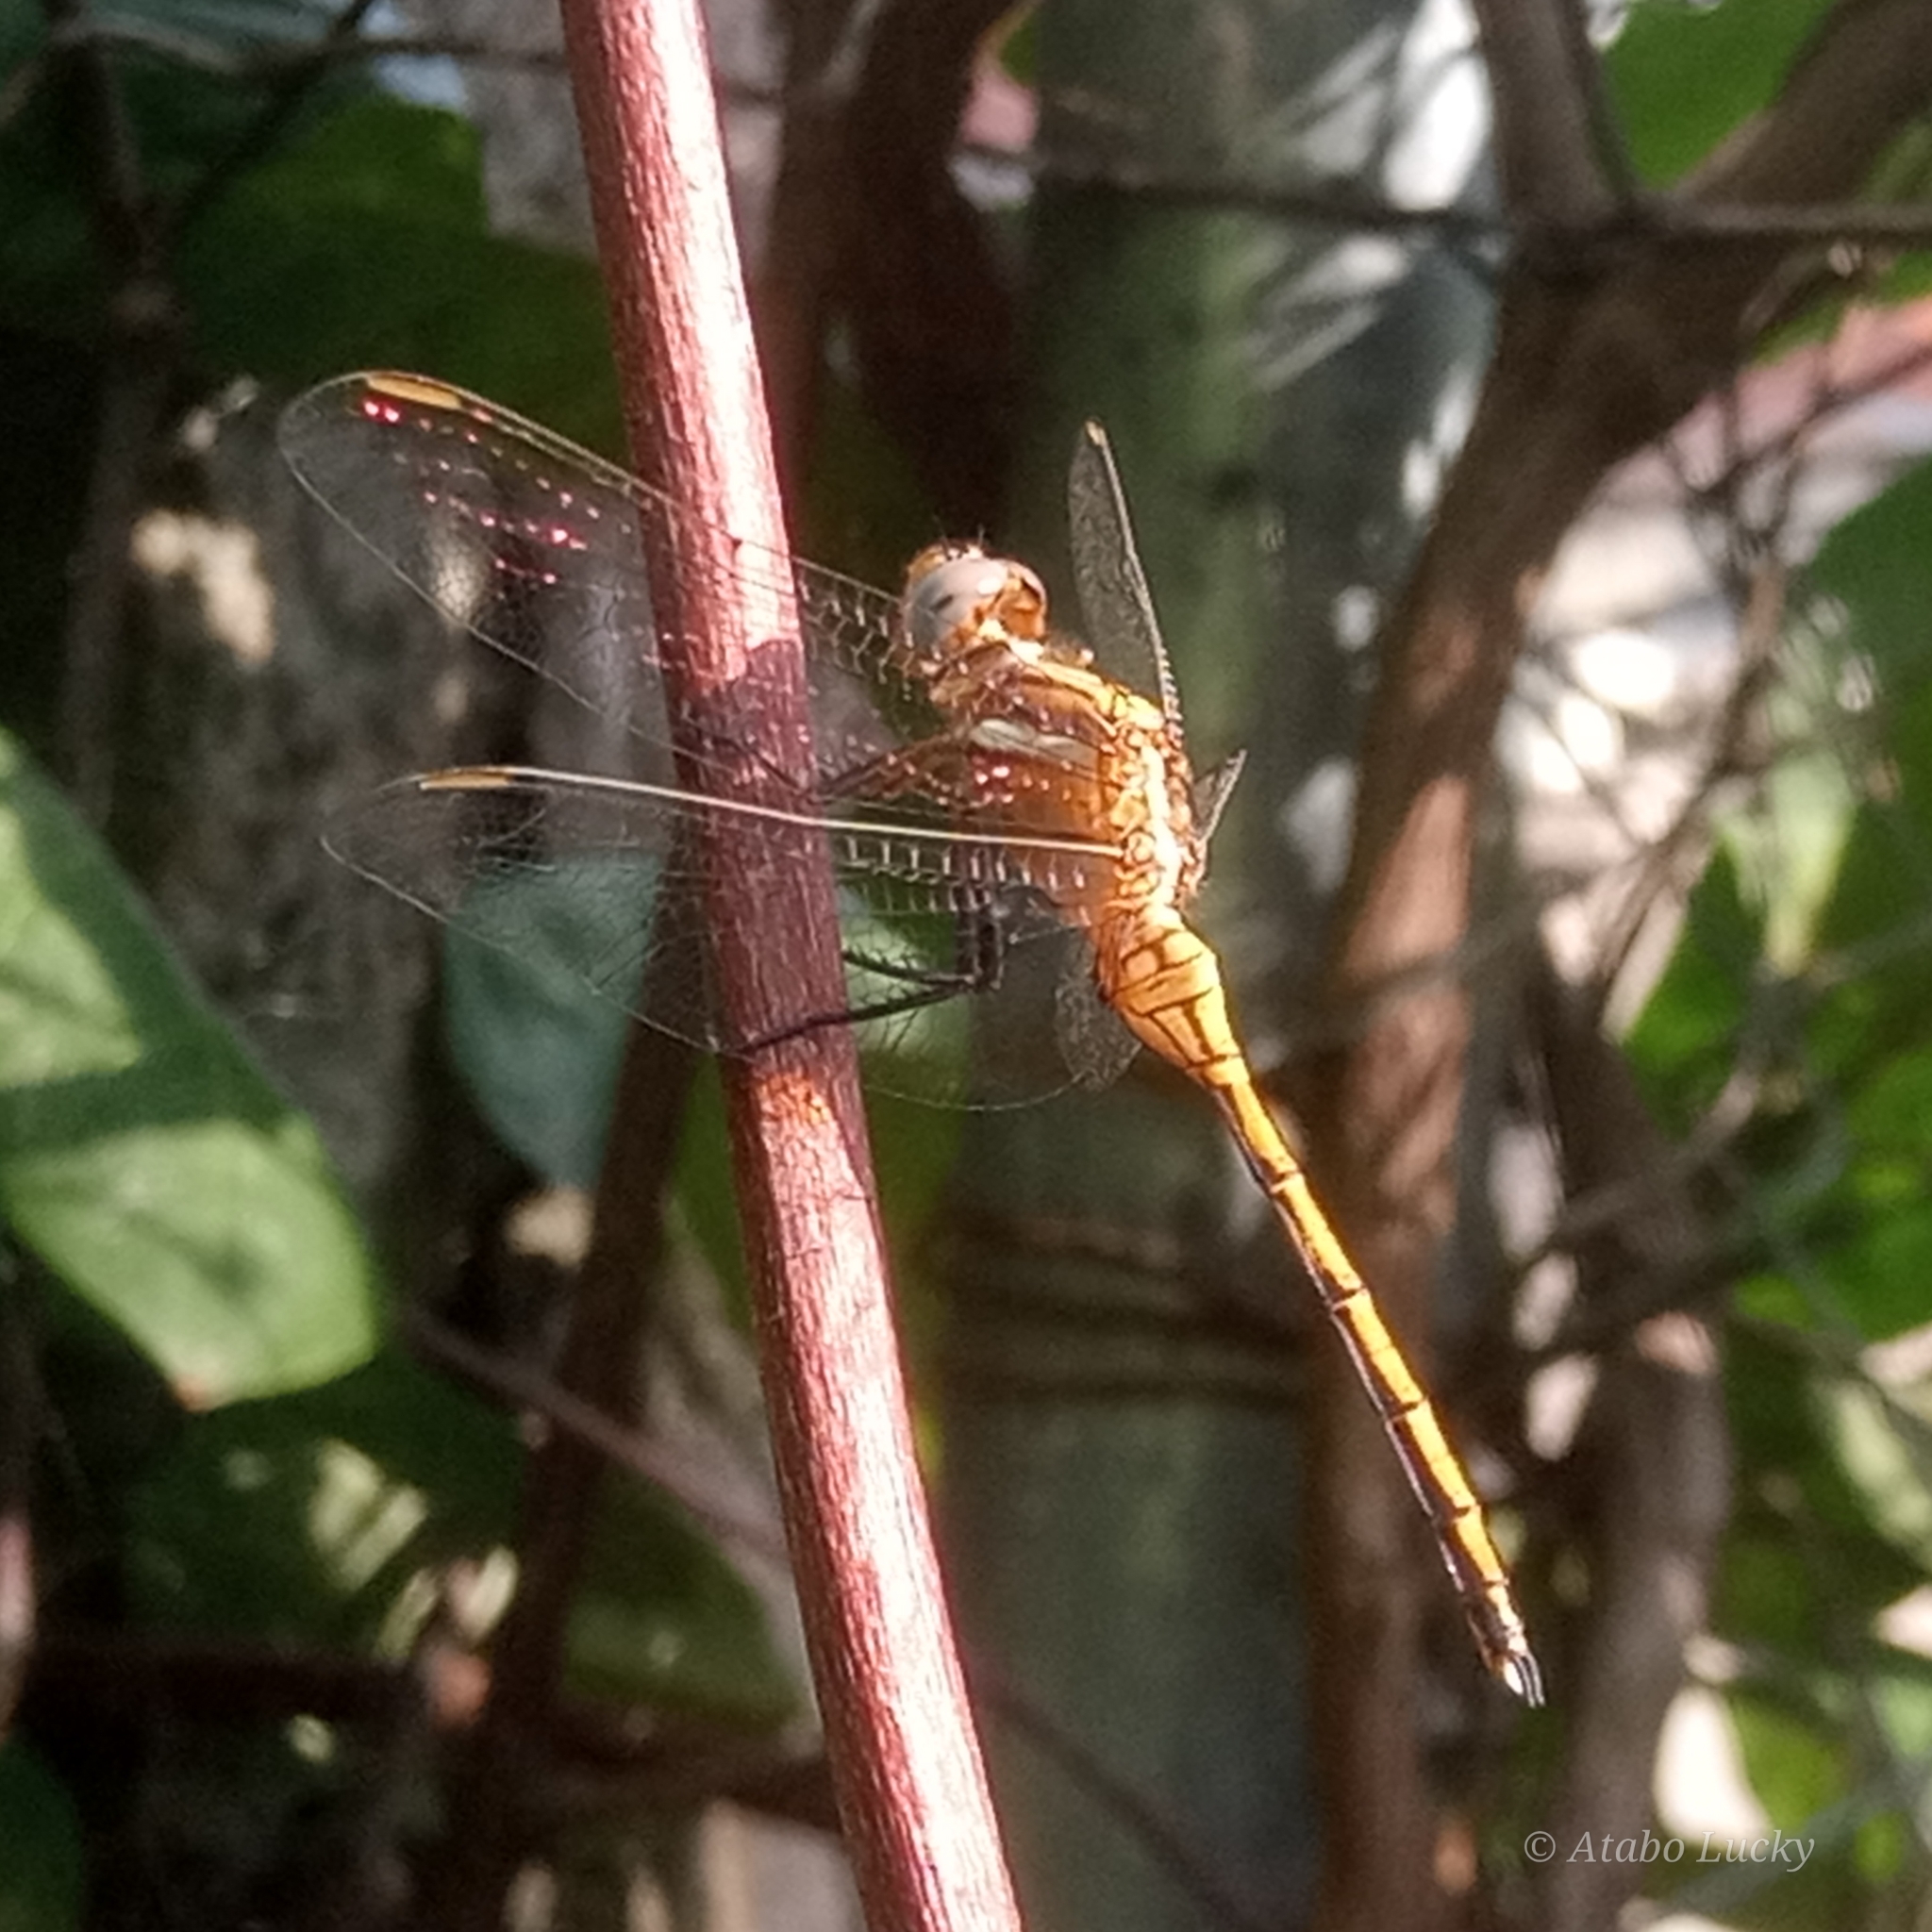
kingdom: Animalia
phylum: Arthropoda
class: Insecta
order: Odonata
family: Libellulidae
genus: Orthetrum
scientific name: Orthetrum chrysostigma
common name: Epaulet skimmer
